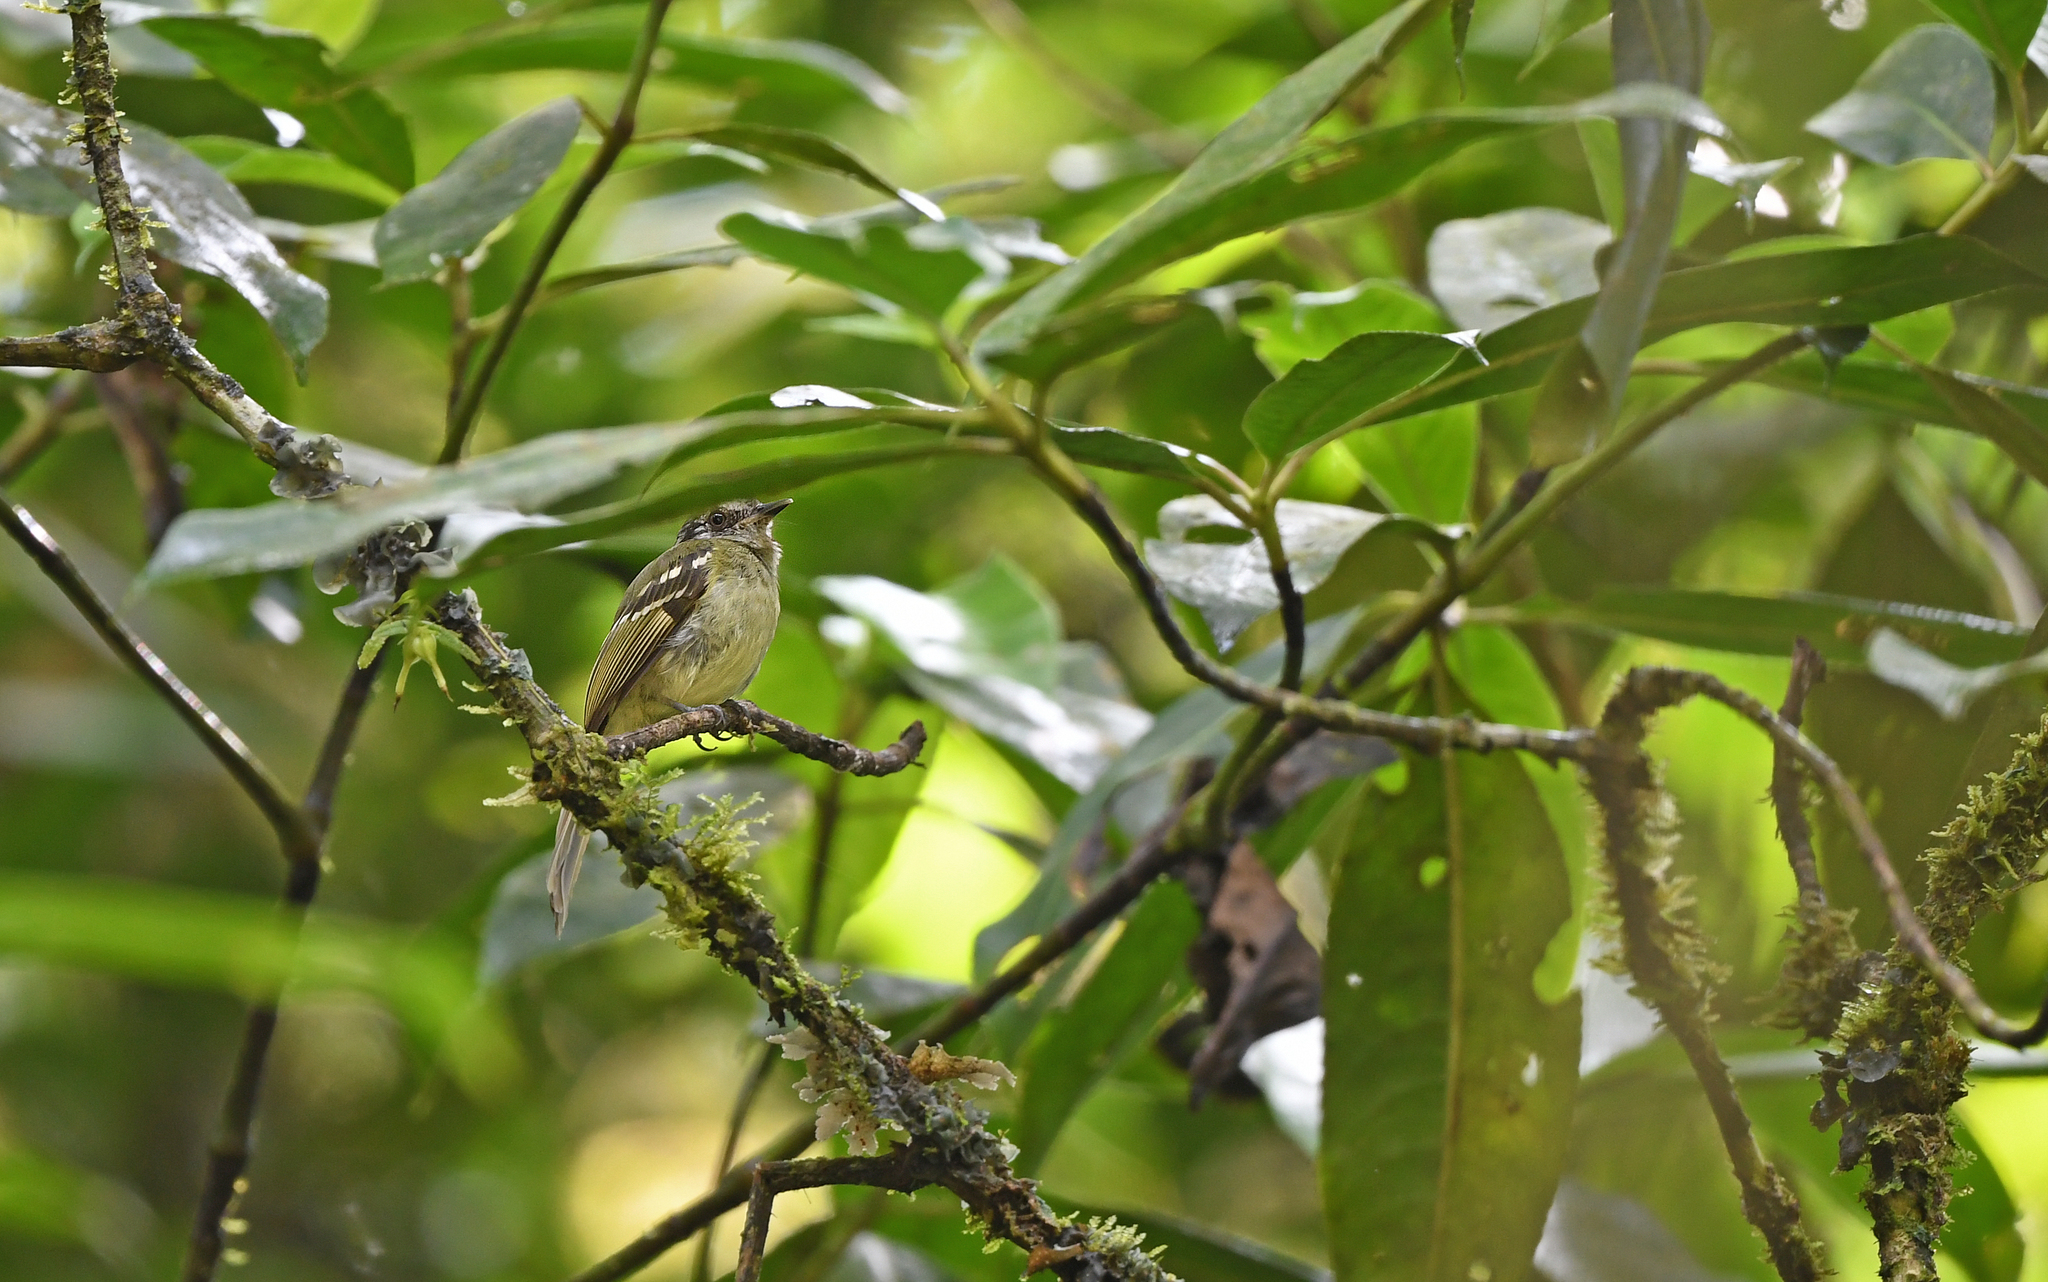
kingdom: Animalia
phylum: Chordata
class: Aves
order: Passeriformes
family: Tyrannidae
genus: Leptopogon
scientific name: Leptopogon superciliaris
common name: Slaty-capped flycatcher
